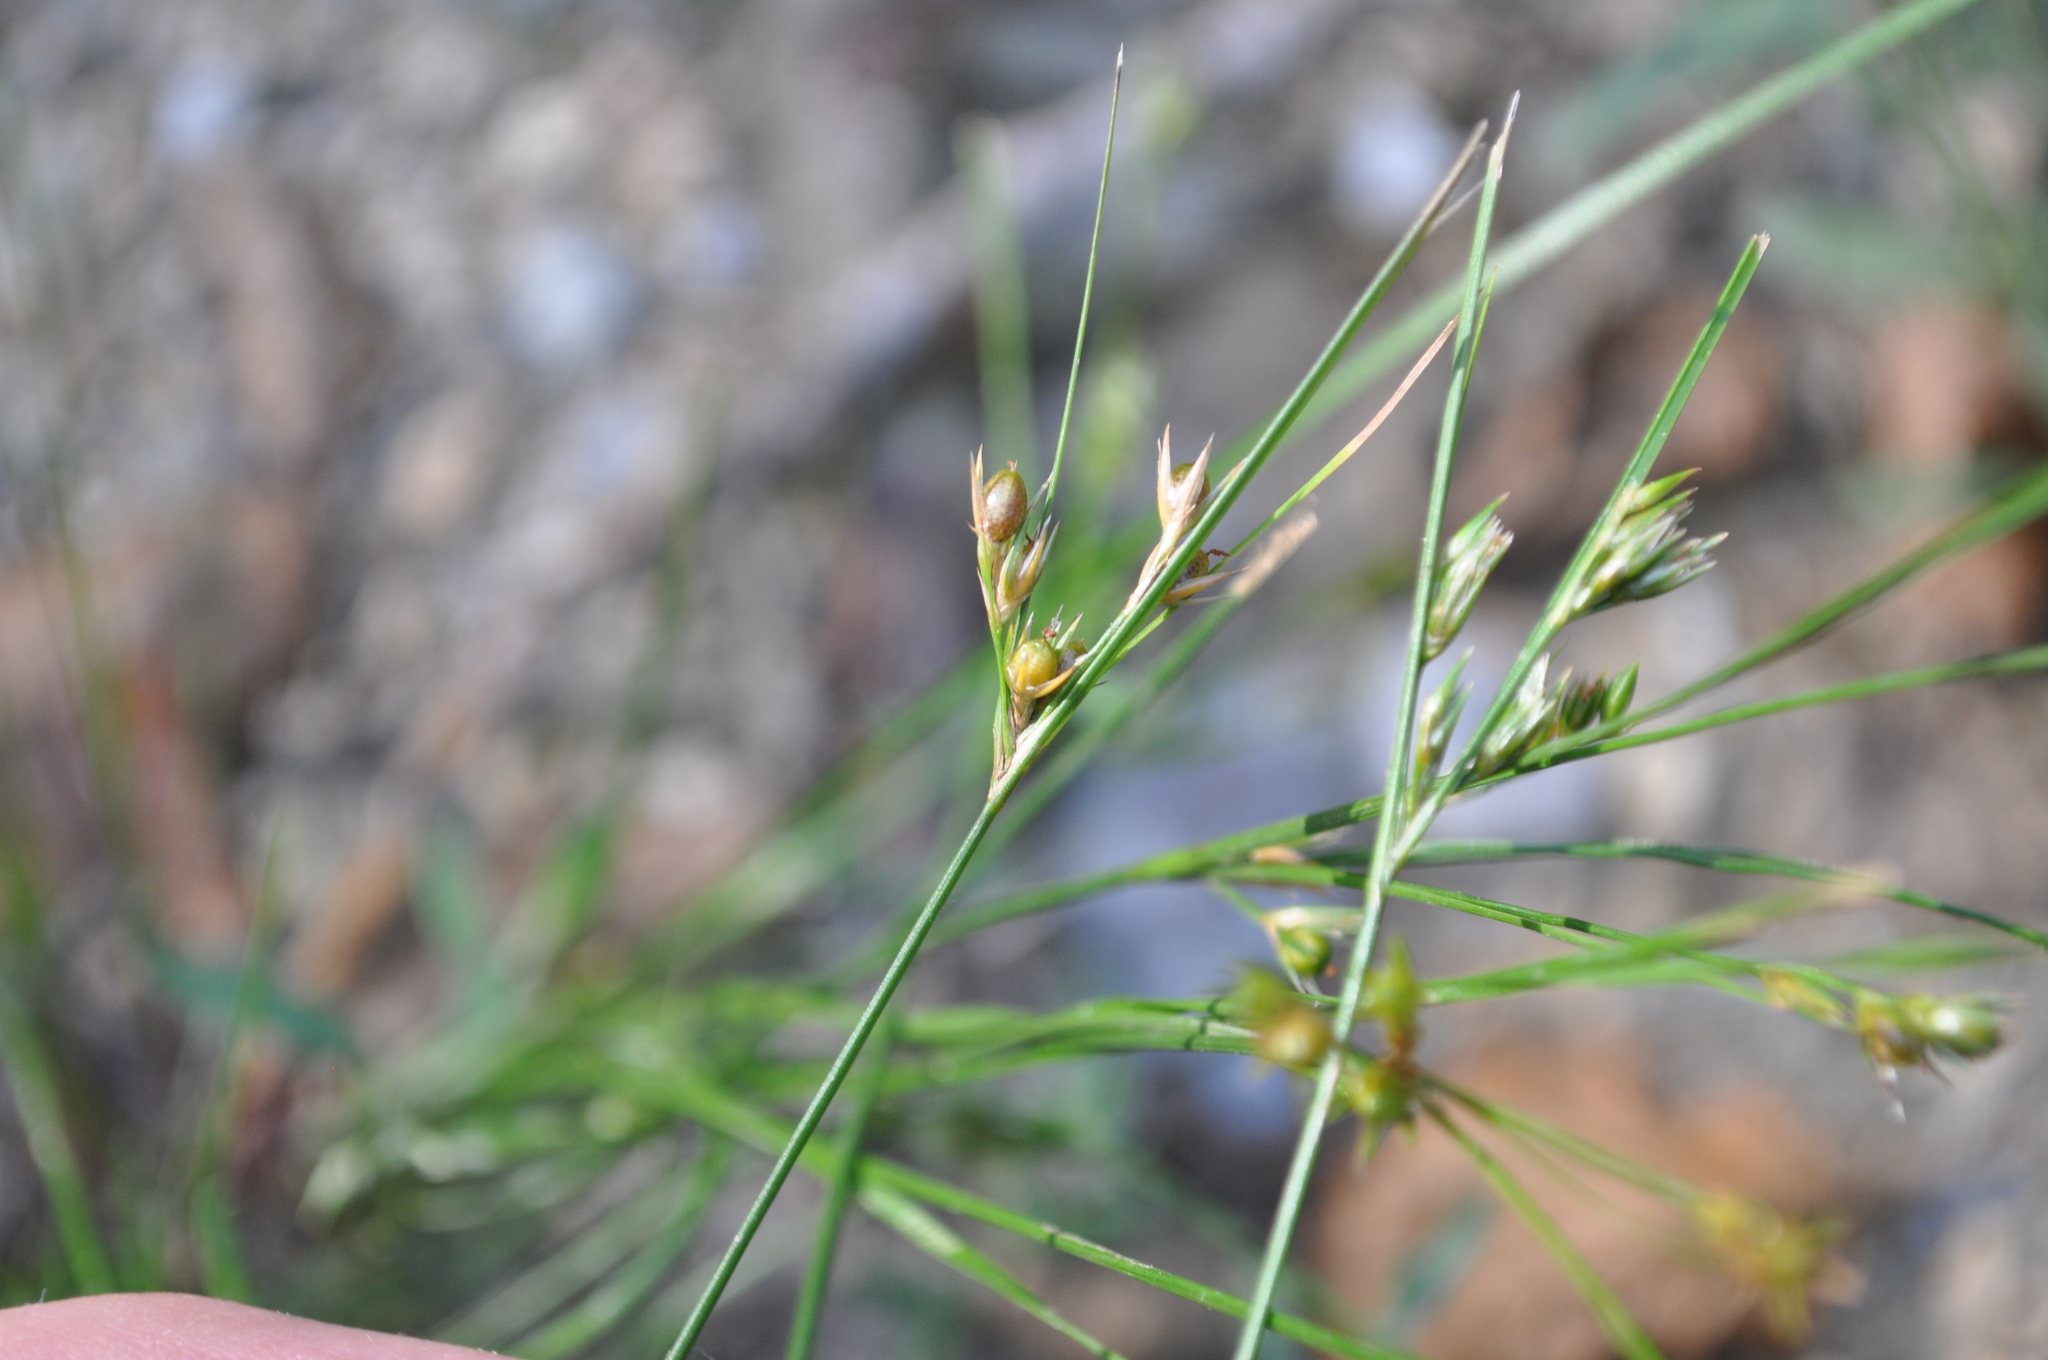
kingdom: Plantae
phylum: Tracheophyta
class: Liliopsida
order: Poales
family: Juncaceae
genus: Juncus
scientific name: Juncus tenuis
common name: Slender rush
